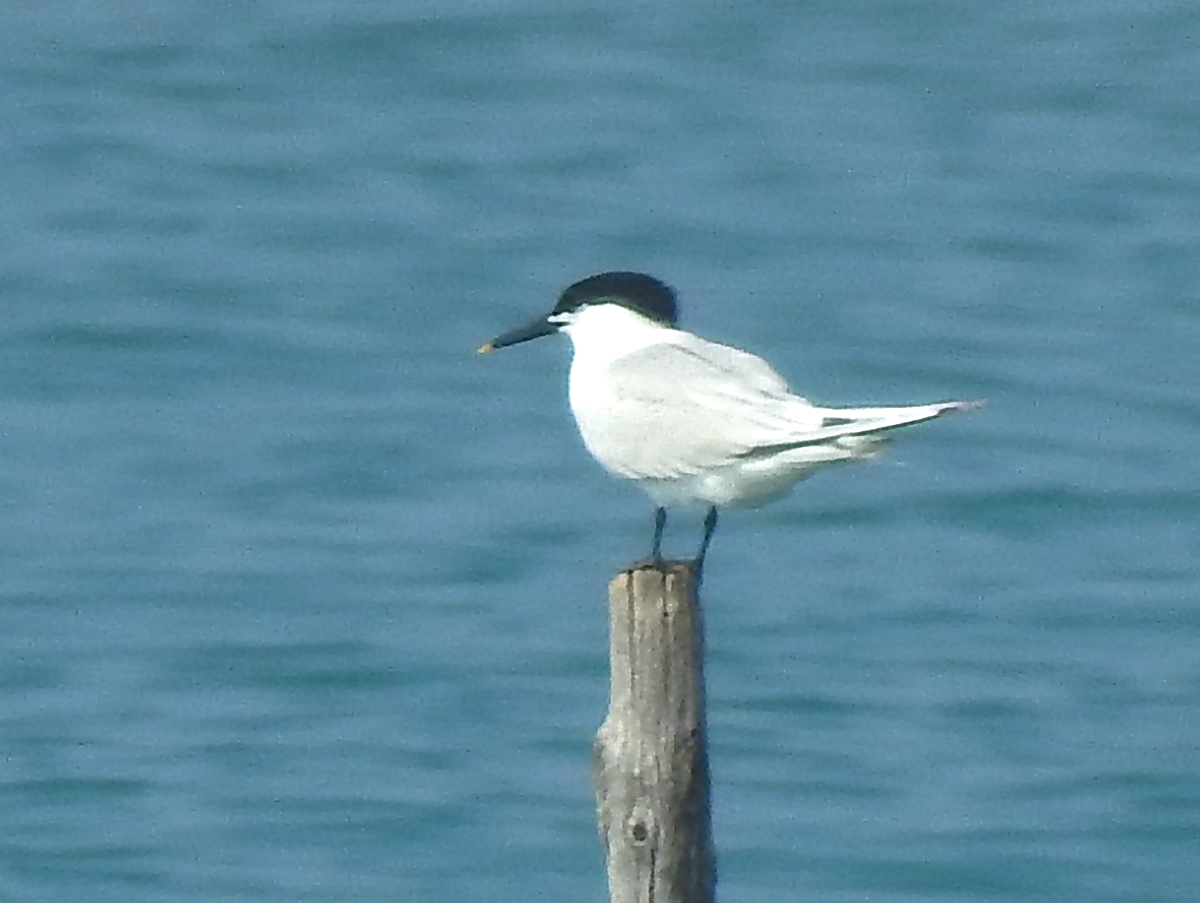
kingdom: Animalia
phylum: Chordata
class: Aves
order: Charadriiformes
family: Laridae
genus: Thalasseus
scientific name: Thalasseus sandvicensis
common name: Sandwich tern
